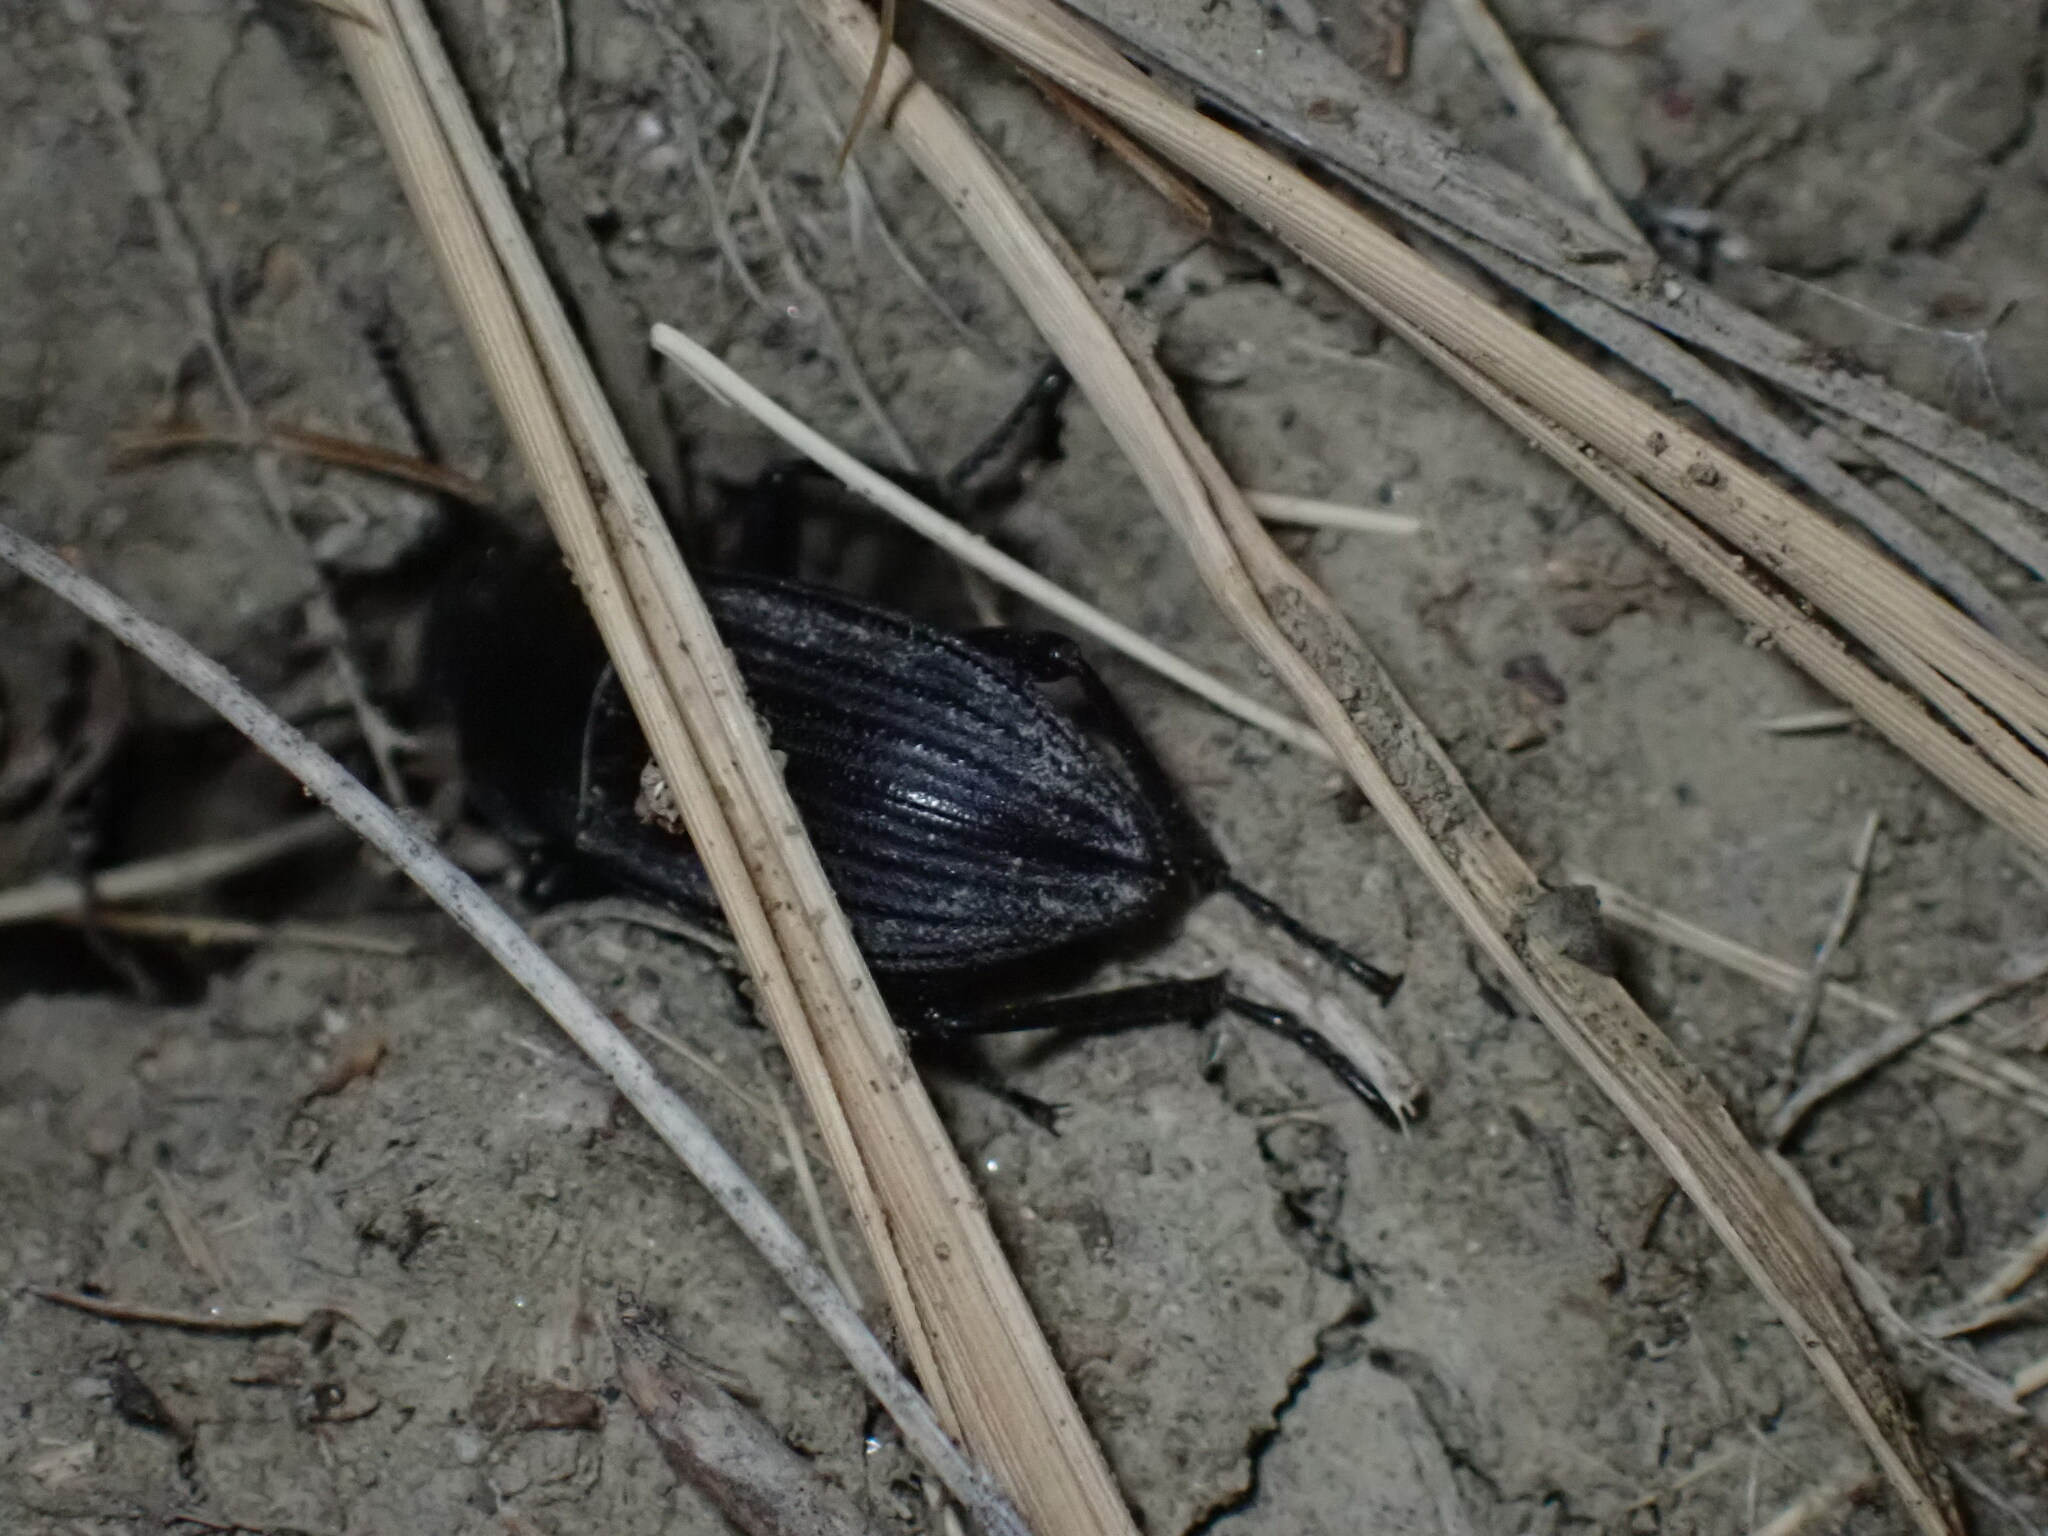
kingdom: Animalia
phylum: Arthropoda
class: Insecta
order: Coleoptera
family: Tenebrionidae
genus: Eleodes
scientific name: Eleodes tricostata
